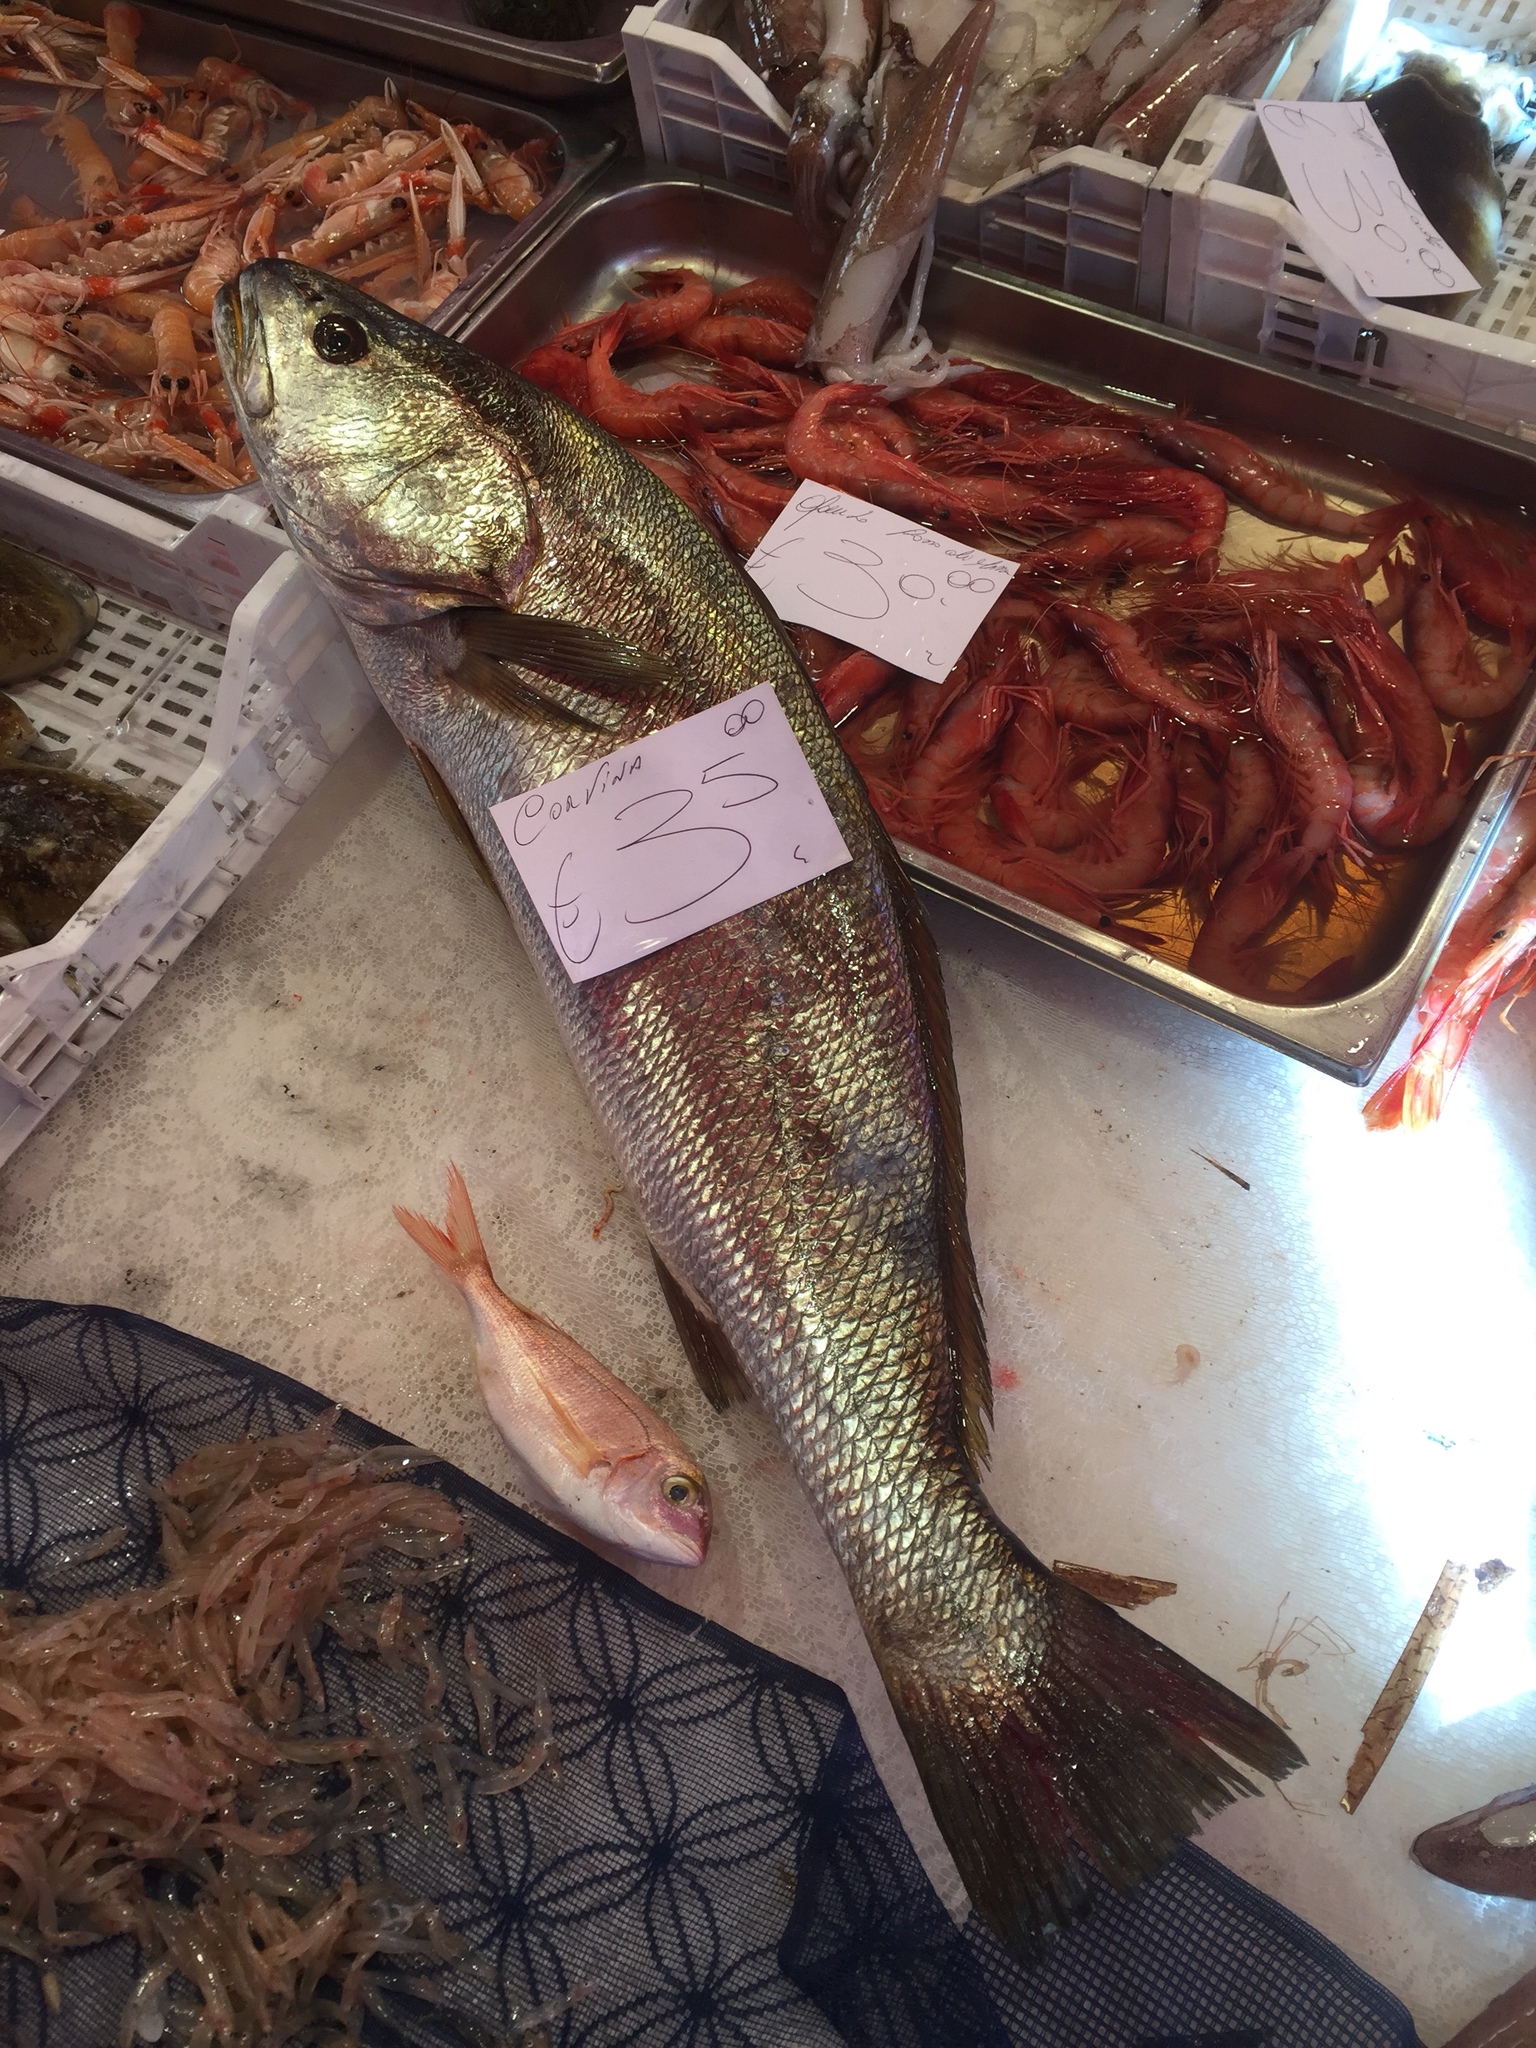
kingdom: Animalia
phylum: Chordata
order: Perciformes
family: Sparidae
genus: Pagellus
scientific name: Pagellus erythrinus
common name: Pandora
